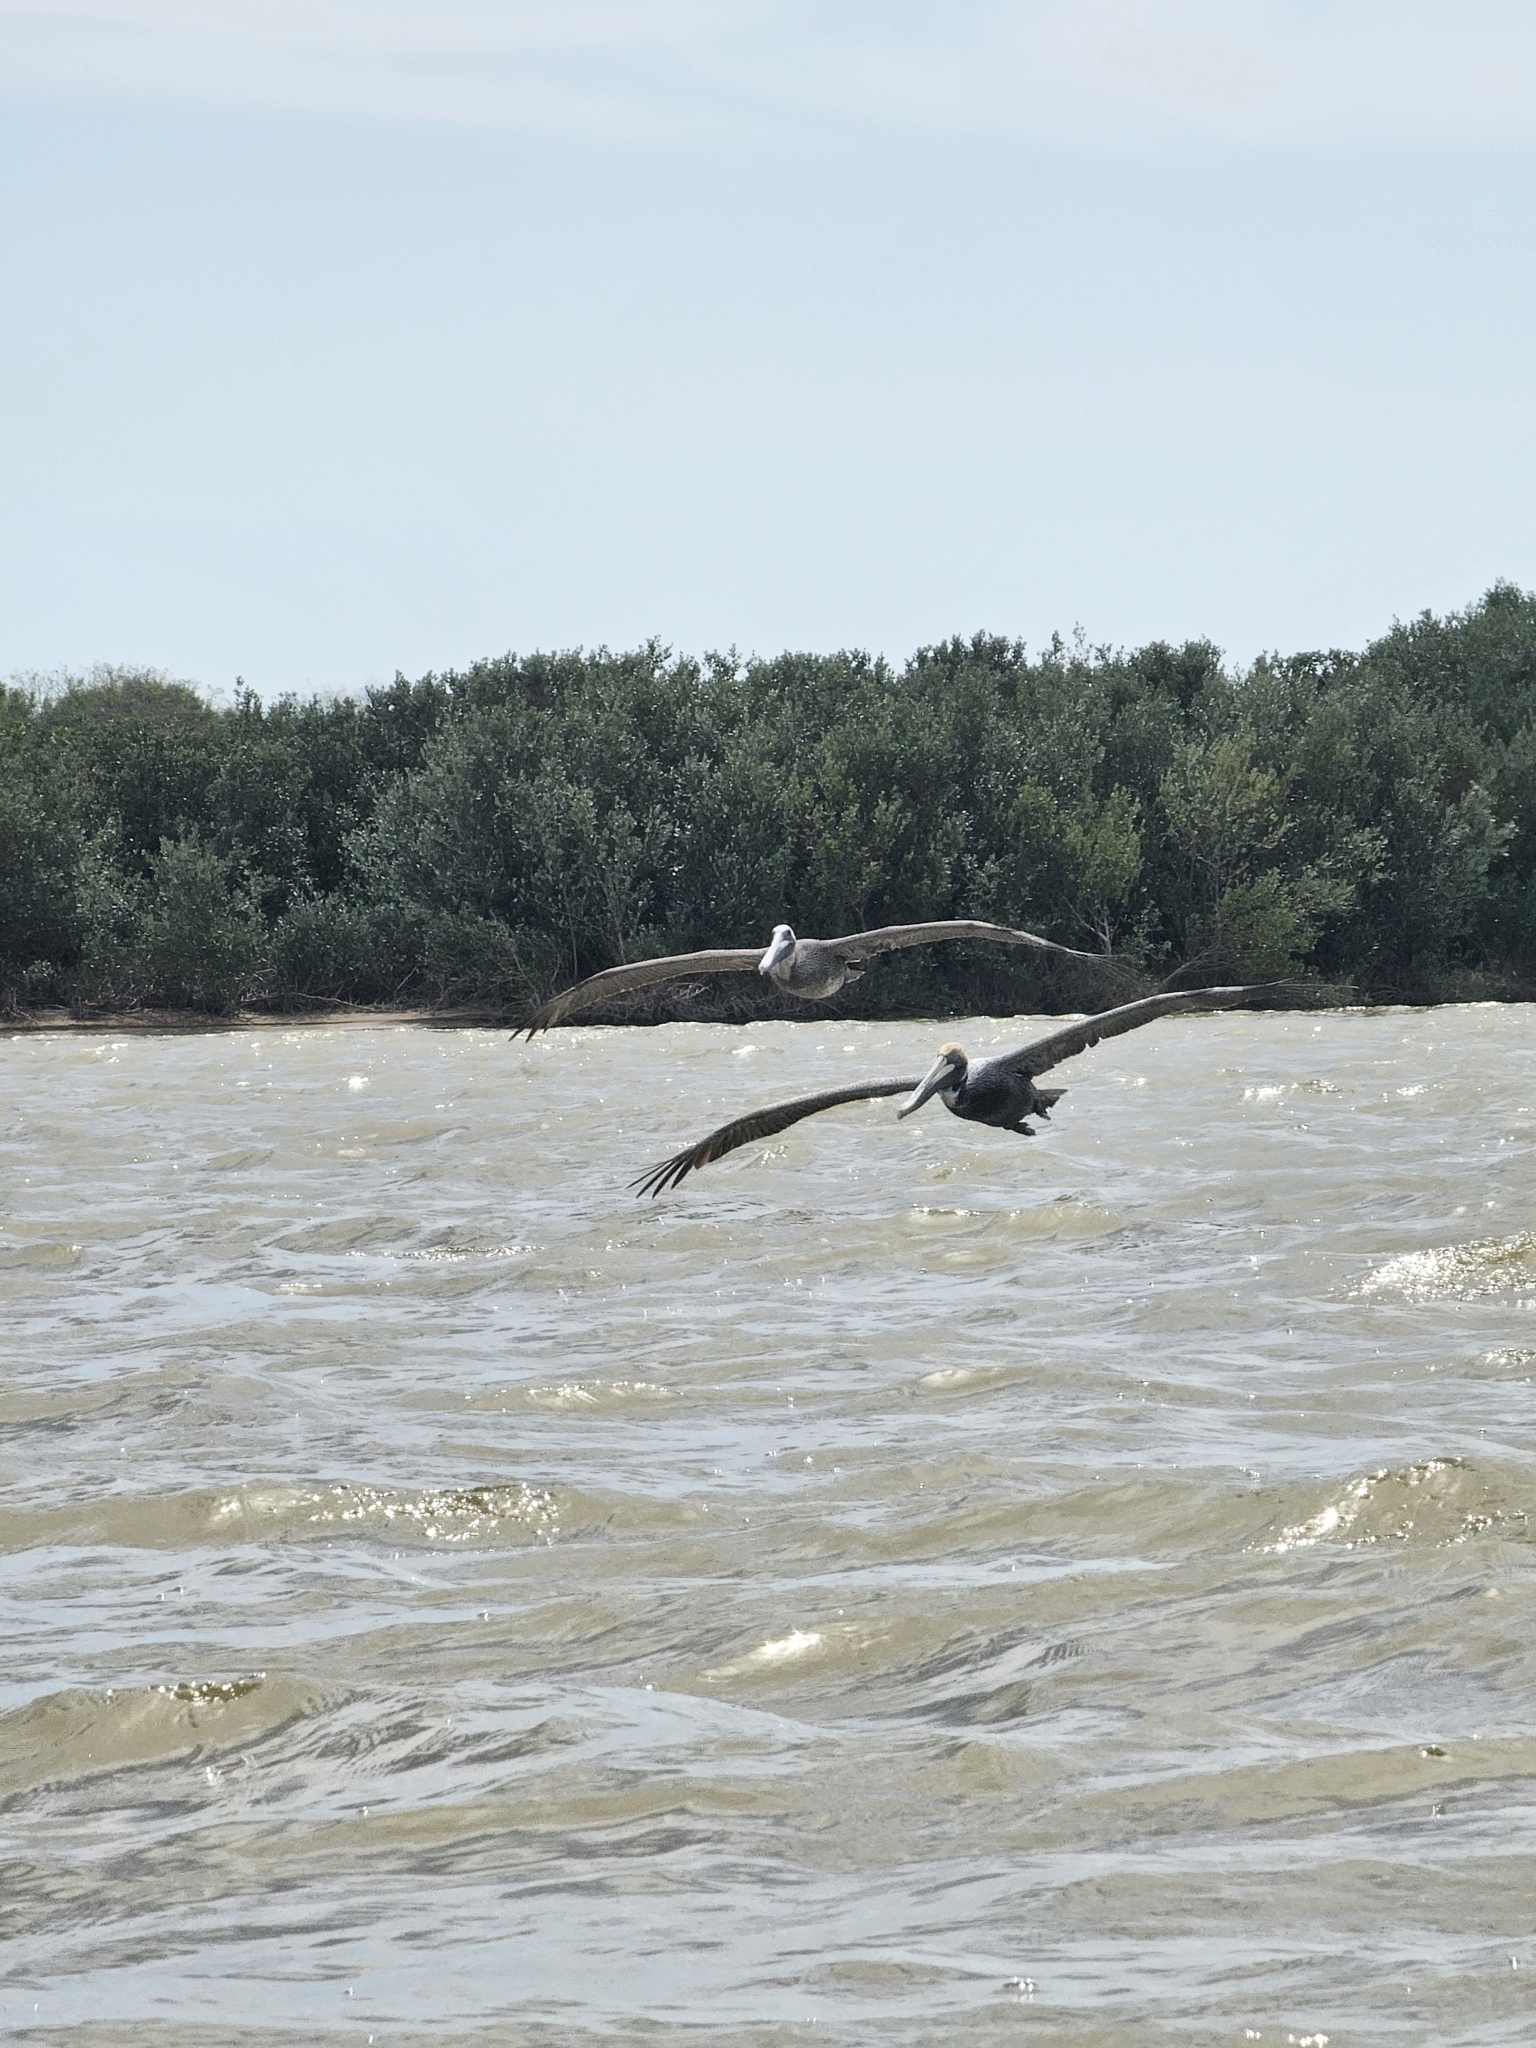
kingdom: Animalia
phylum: Chordata
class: Aves
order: Pelecaniformes
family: Pelecanidae
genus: Pelecanus
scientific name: Pelecanus occidentalis
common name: Brown pelican
